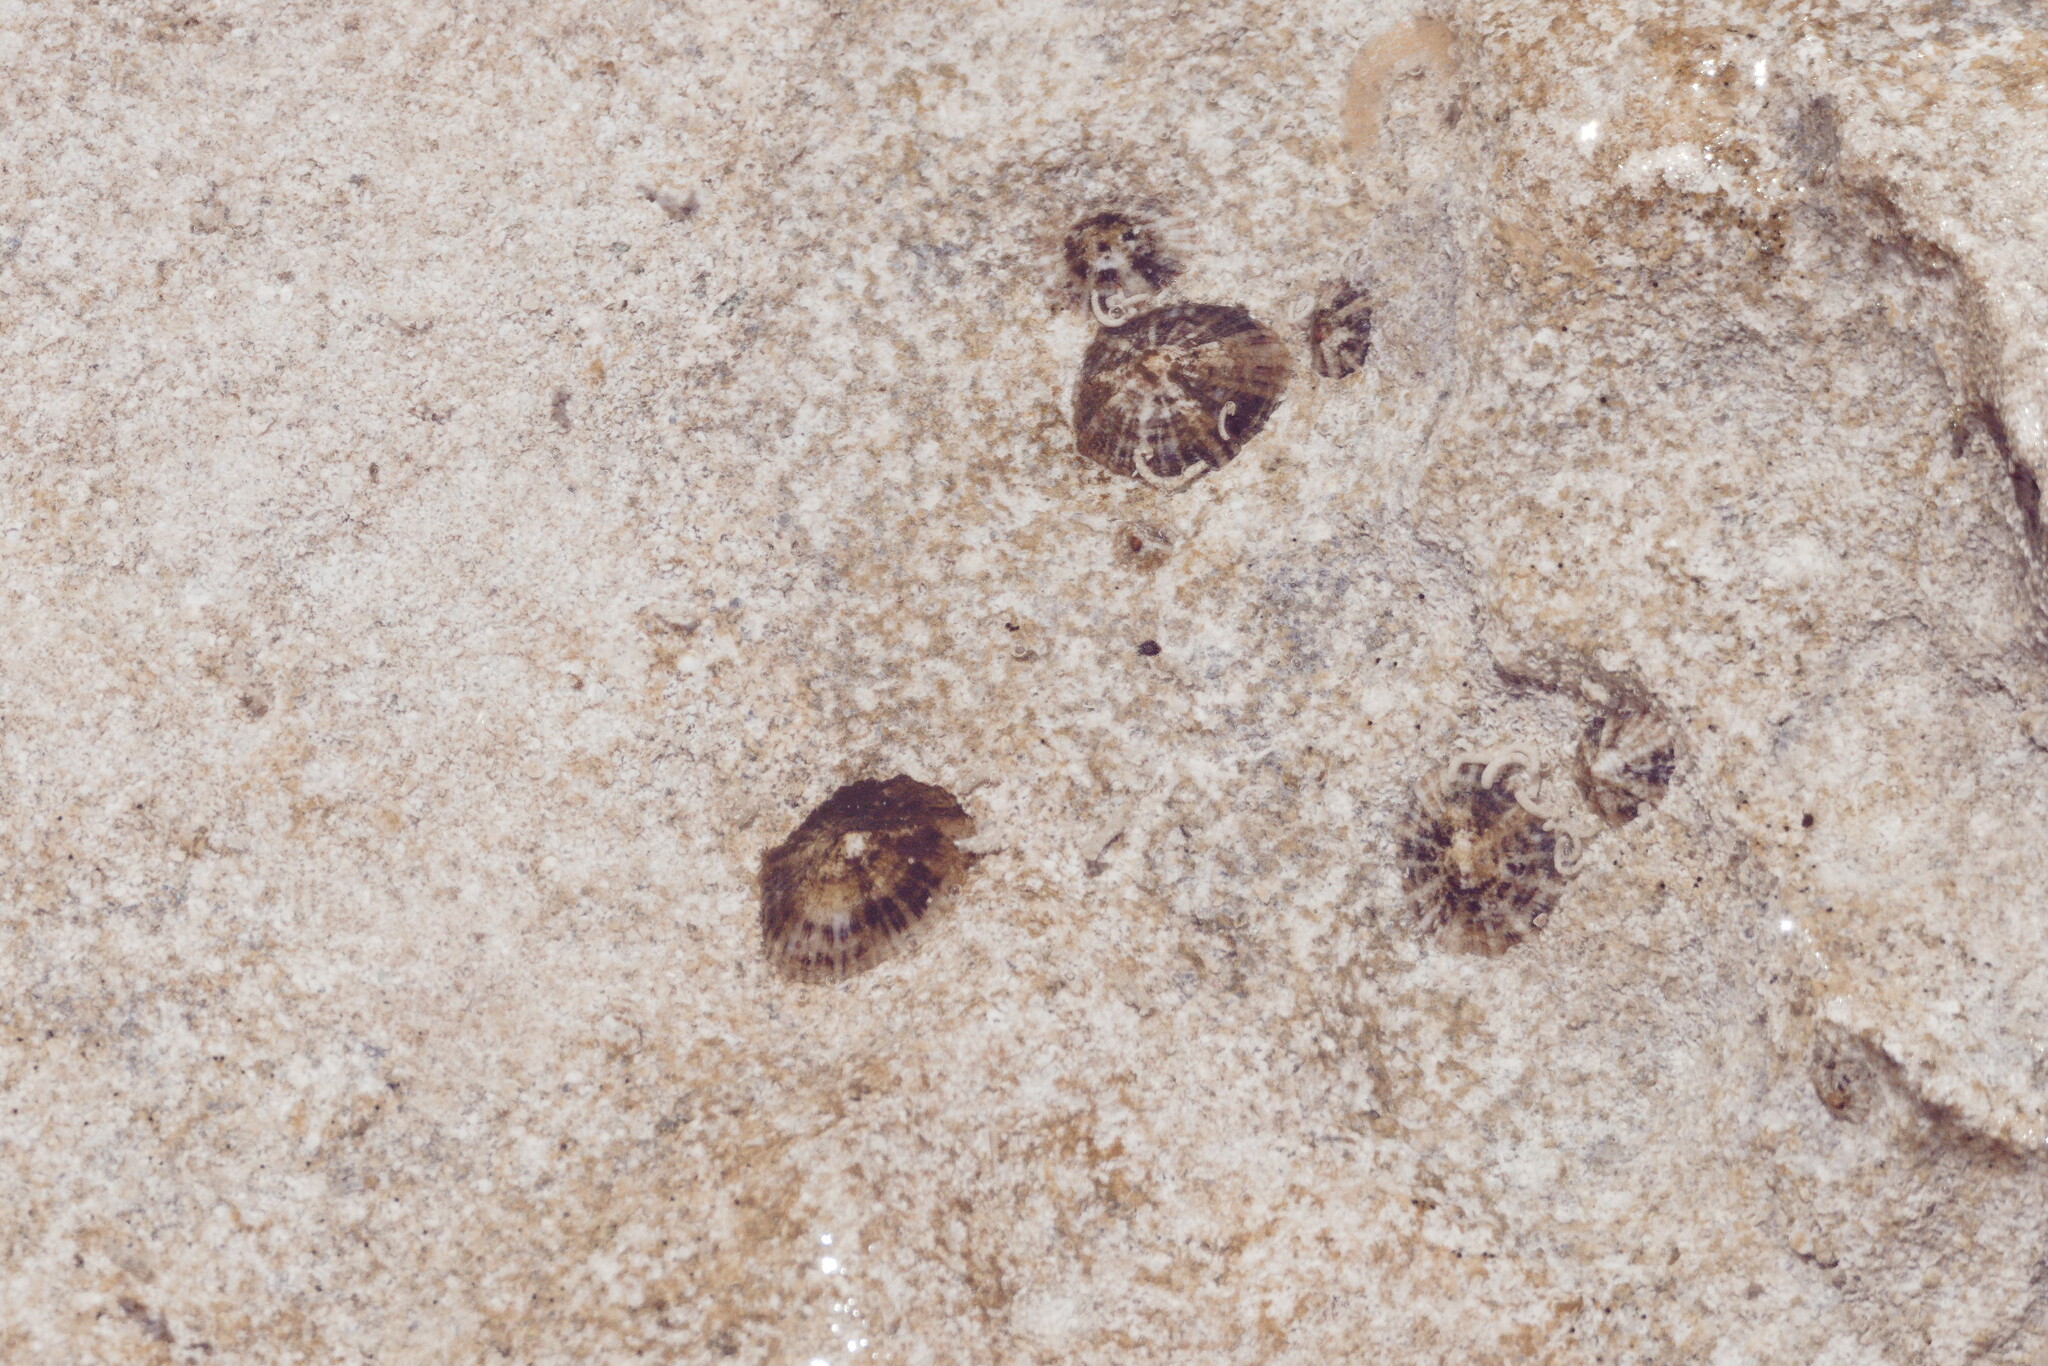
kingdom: Animalia
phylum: Mollusca
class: Gastropoda
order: Siphonariida
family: Siphonariidae
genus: Siphonaria
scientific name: Siphonaria alternata
